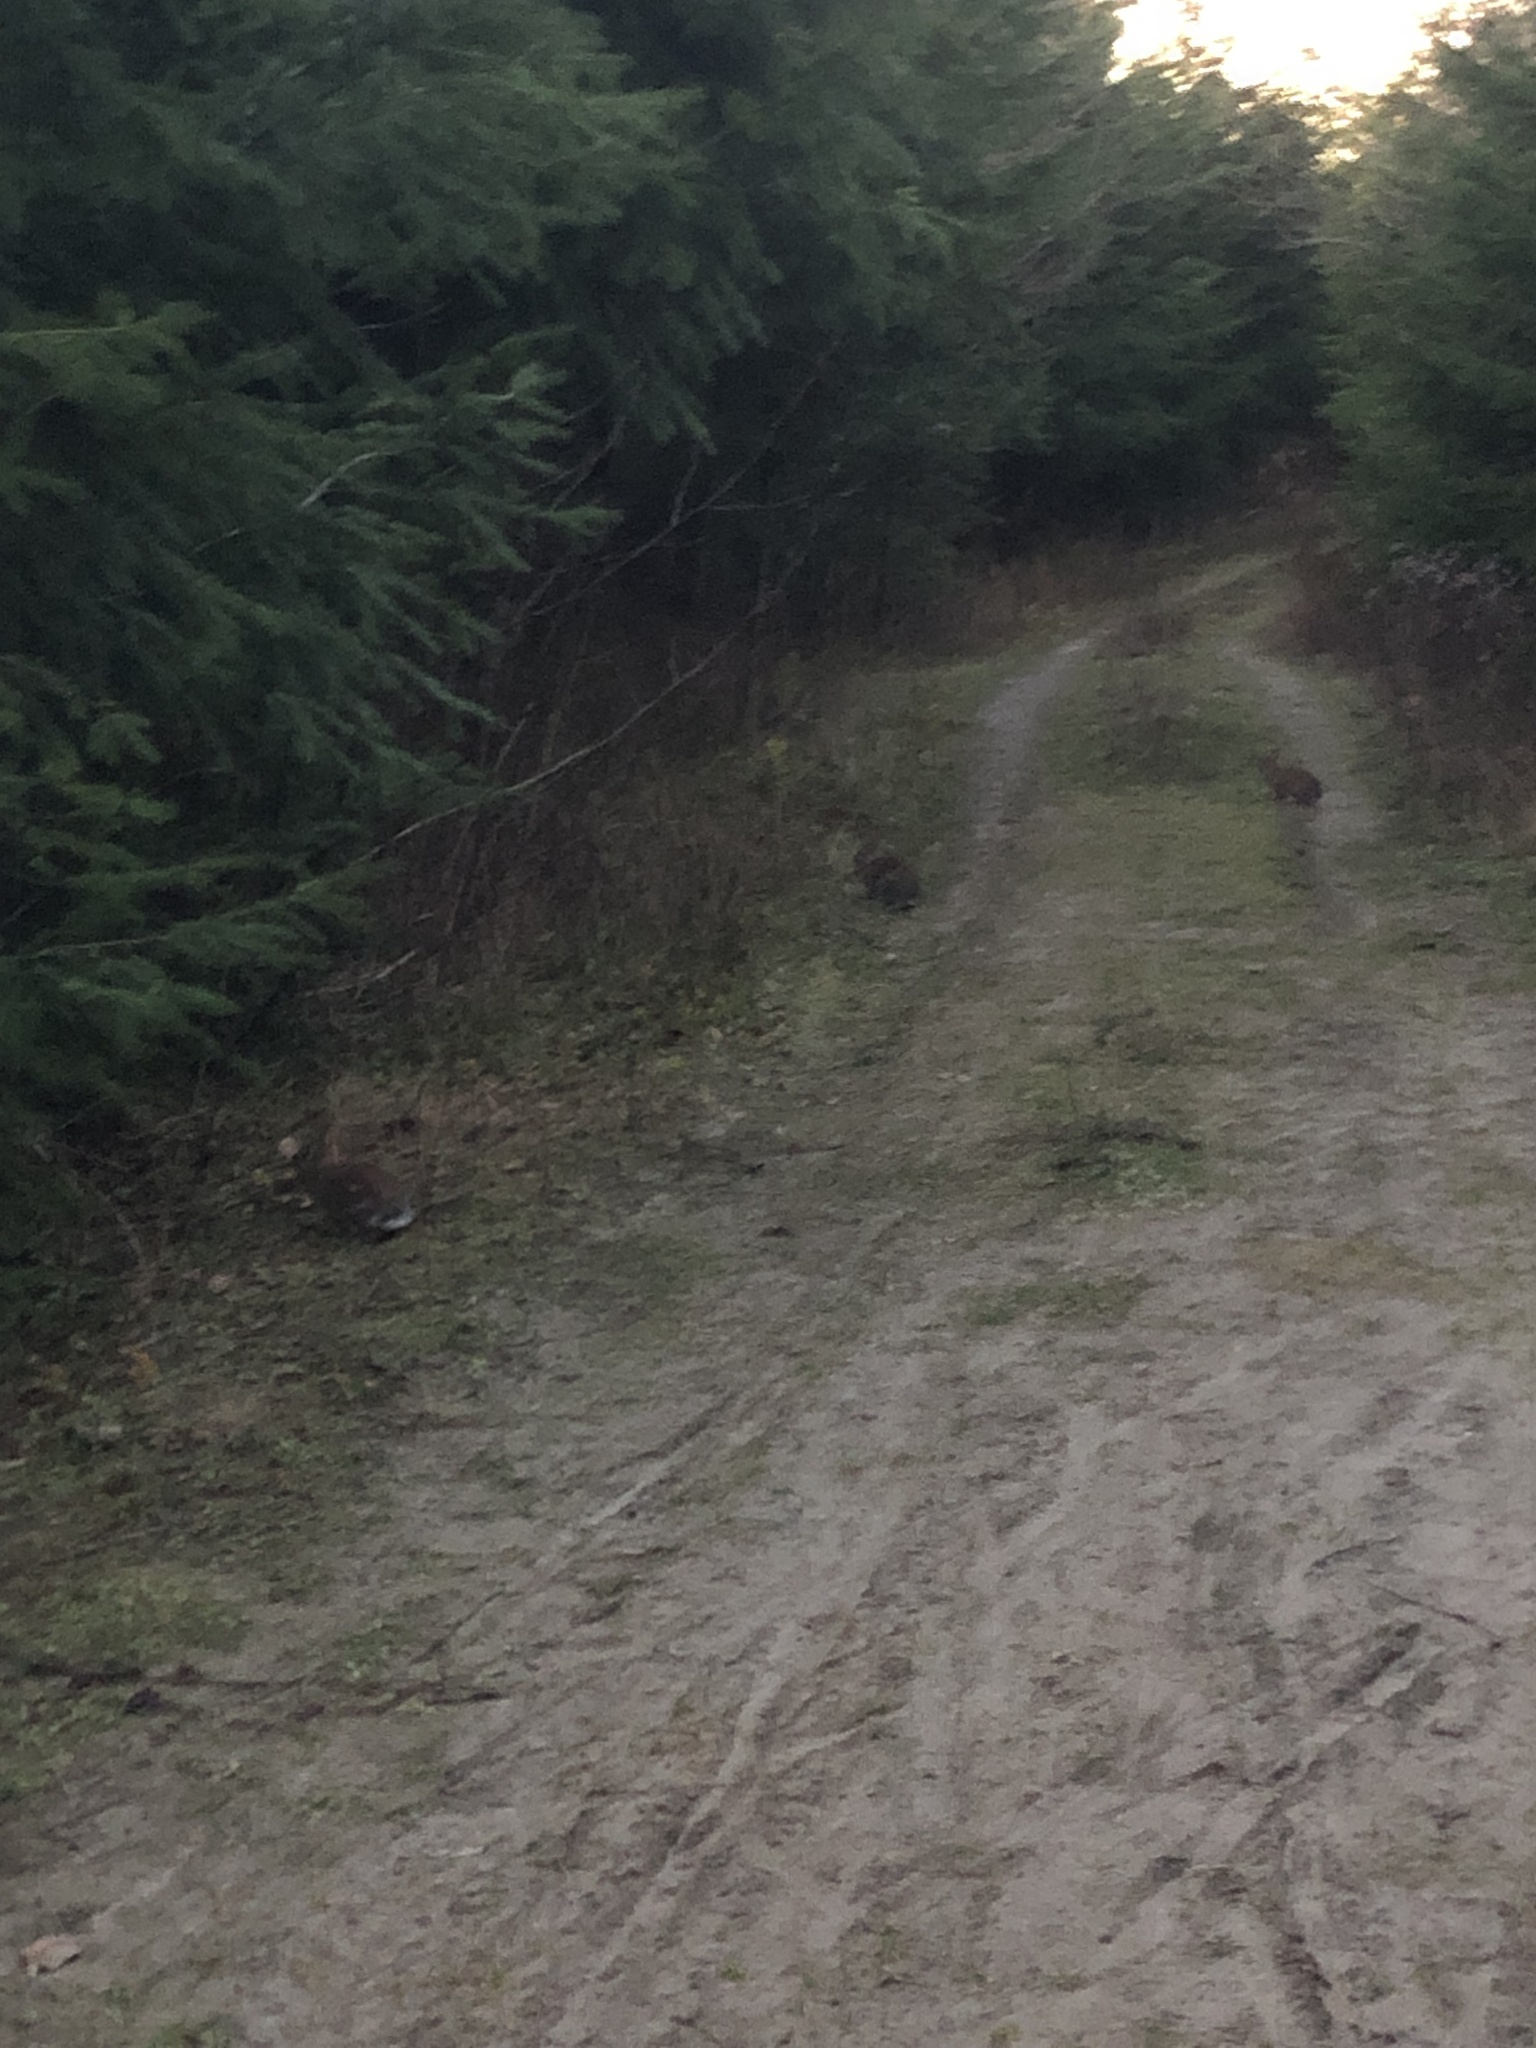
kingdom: Animalia
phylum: Chordata
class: Mammalia
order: Lagomorpha
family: Leporidae
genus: Sylvilagus
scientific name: Sylvilagus floridanus
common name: Eastern cottontail
